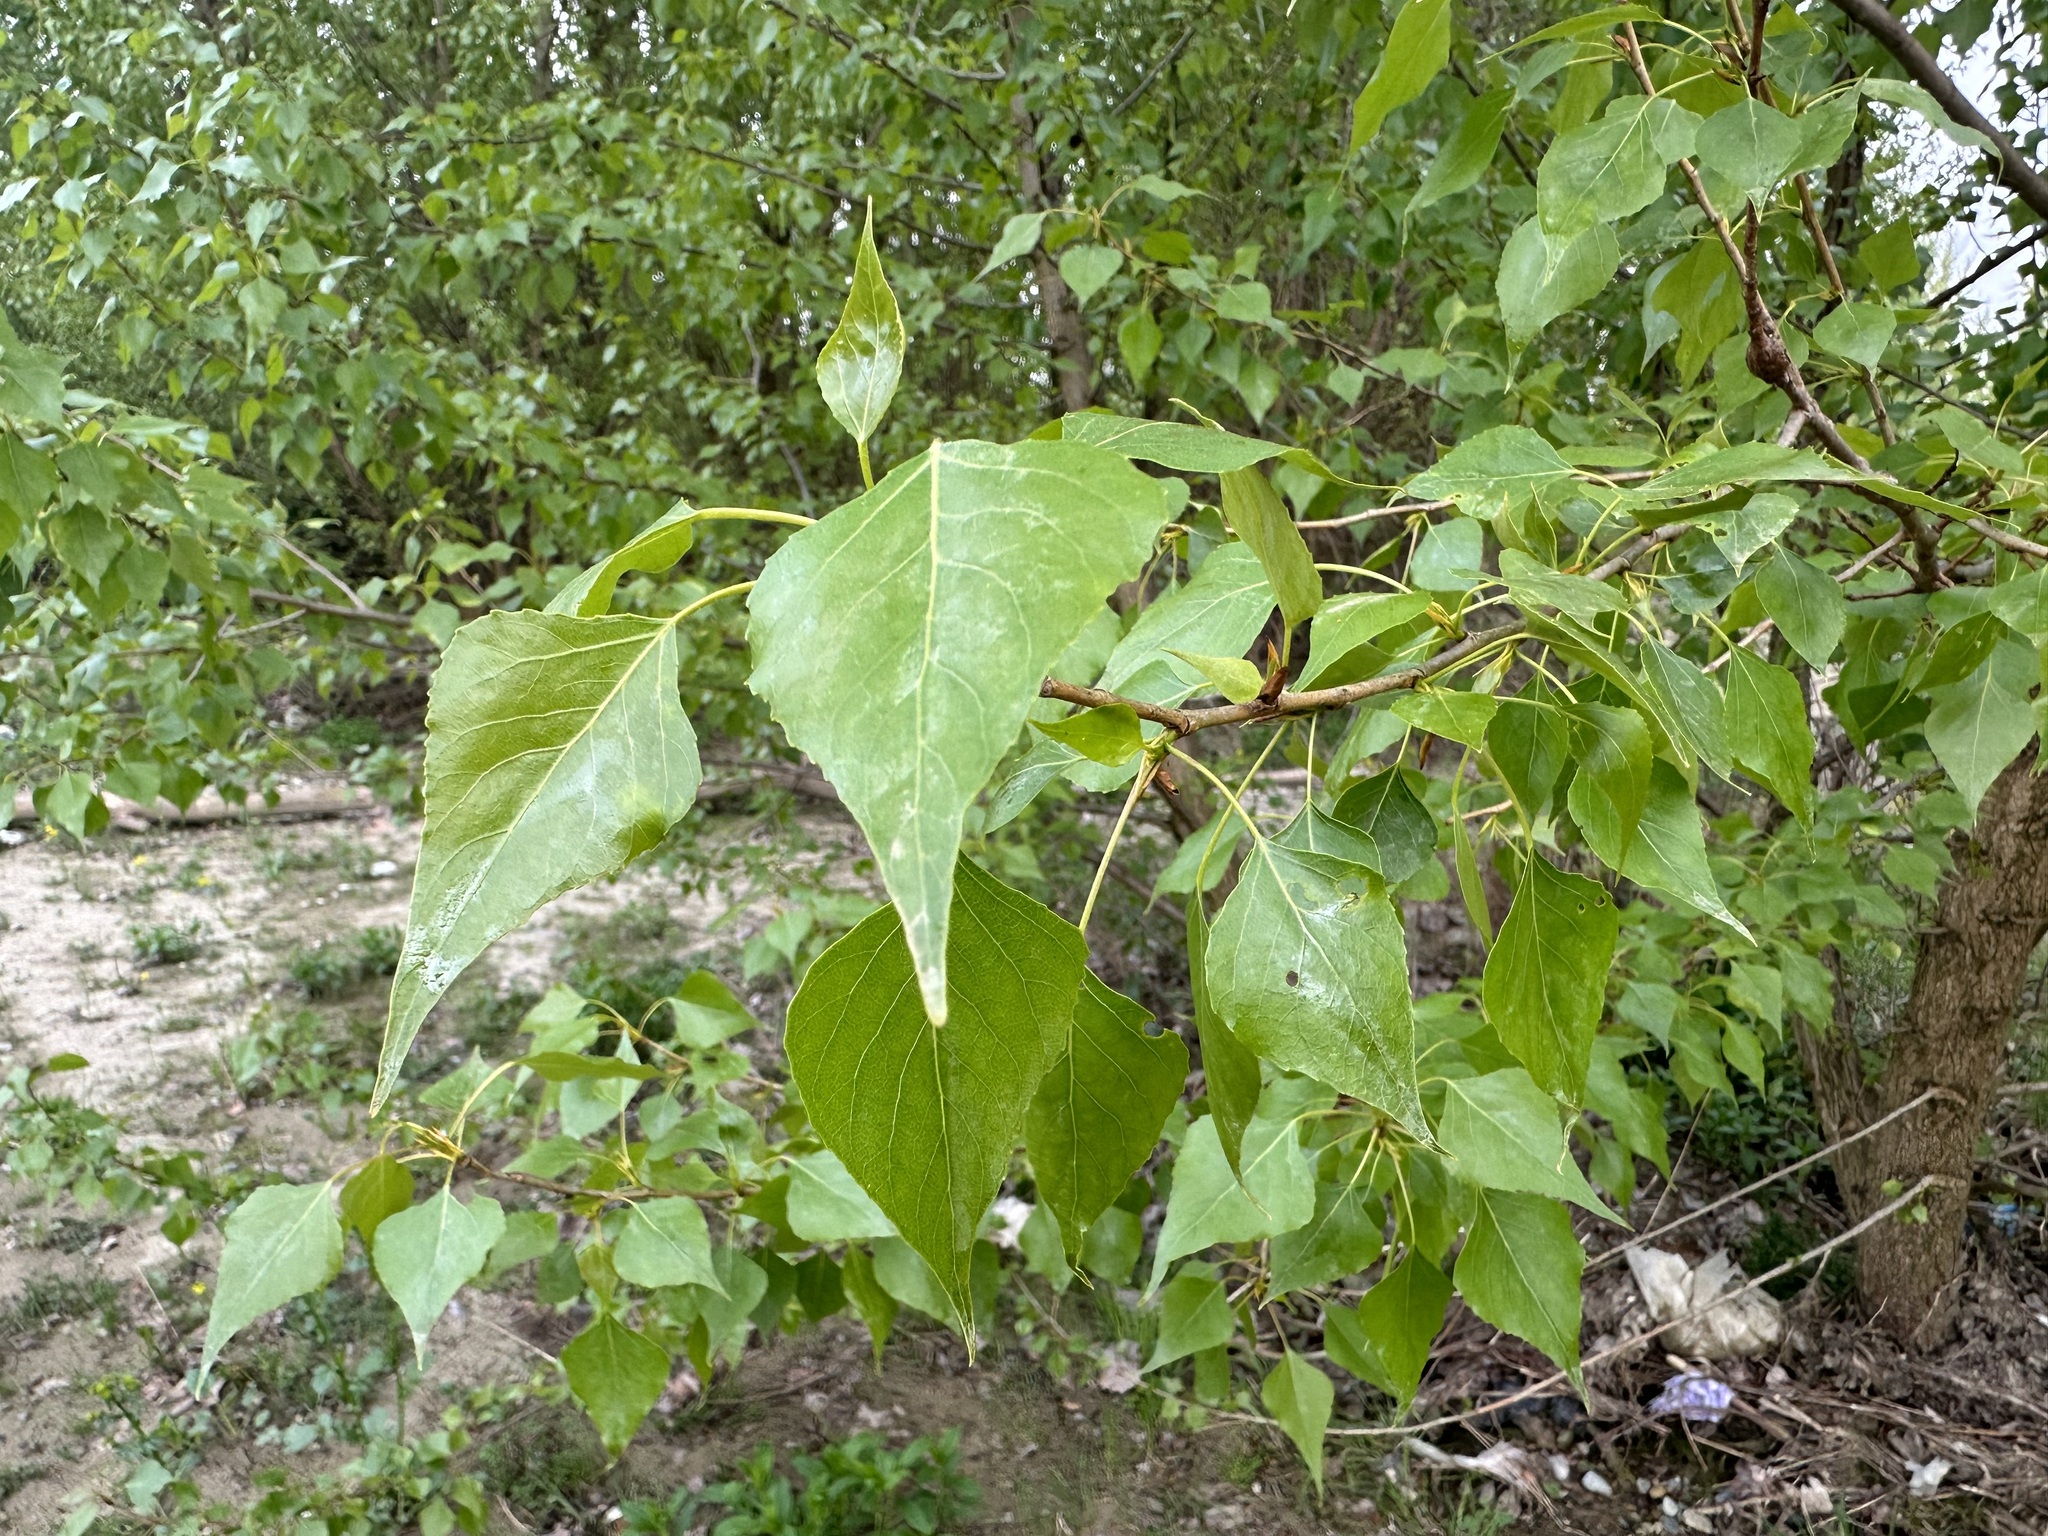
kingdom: Plantae
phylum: Tracheophyta
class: Magnoliopsida
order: Malpighiales
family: Salicaceae
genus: Populus
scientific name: Populus nigra
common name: Black poplar
